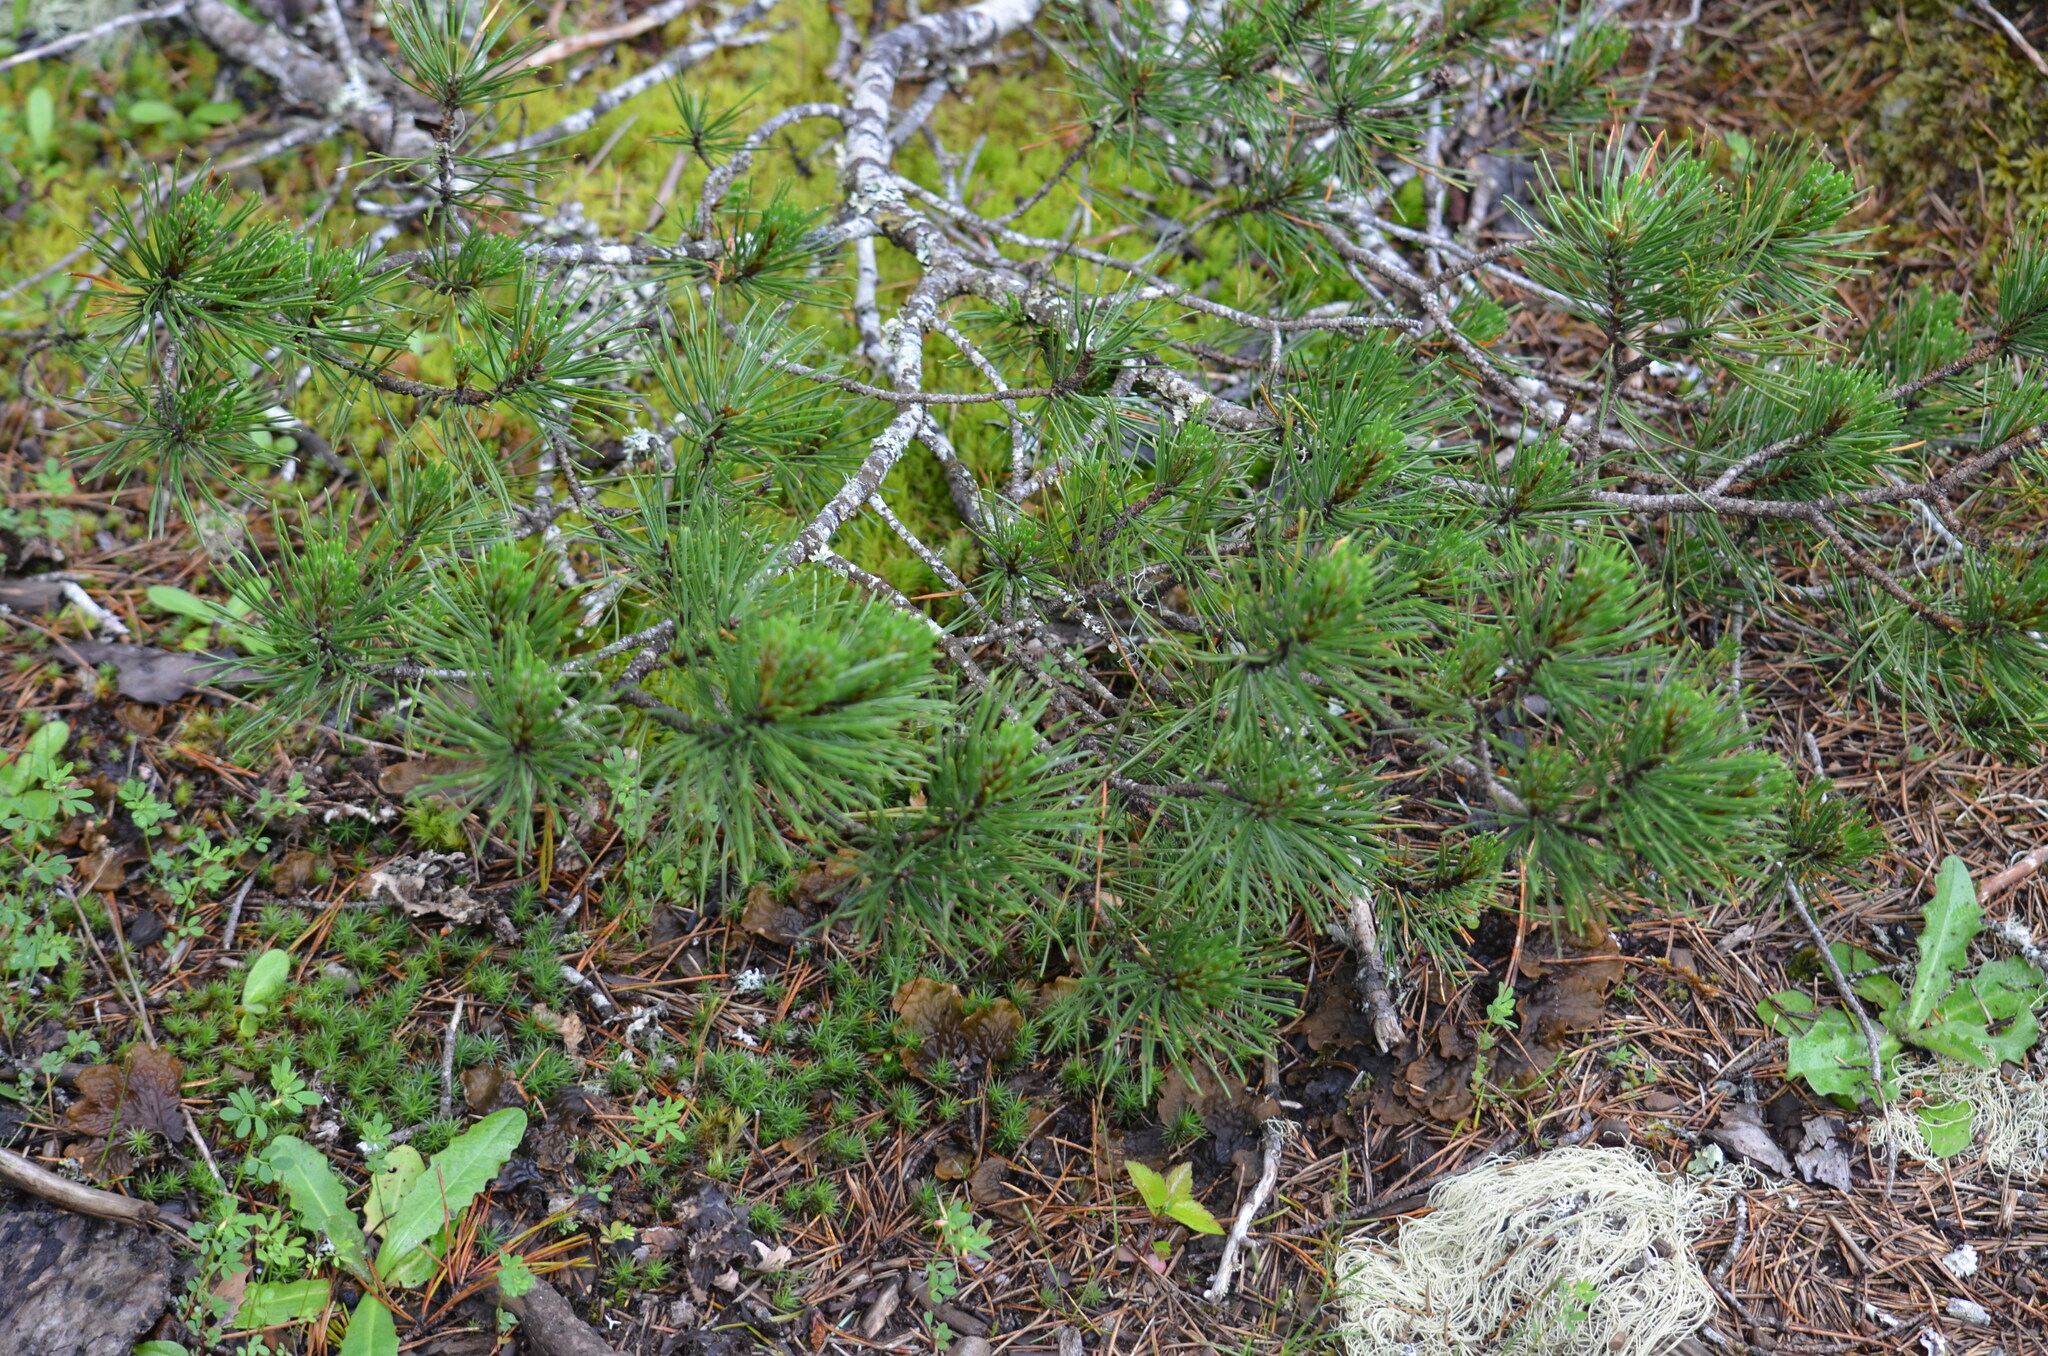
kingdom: Plantae
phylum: Tracheophyta
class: Pinopsida
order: Pinales
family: Pinaceae
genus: Pinus
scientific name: Pinus contorta
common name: Lodgepole pine
